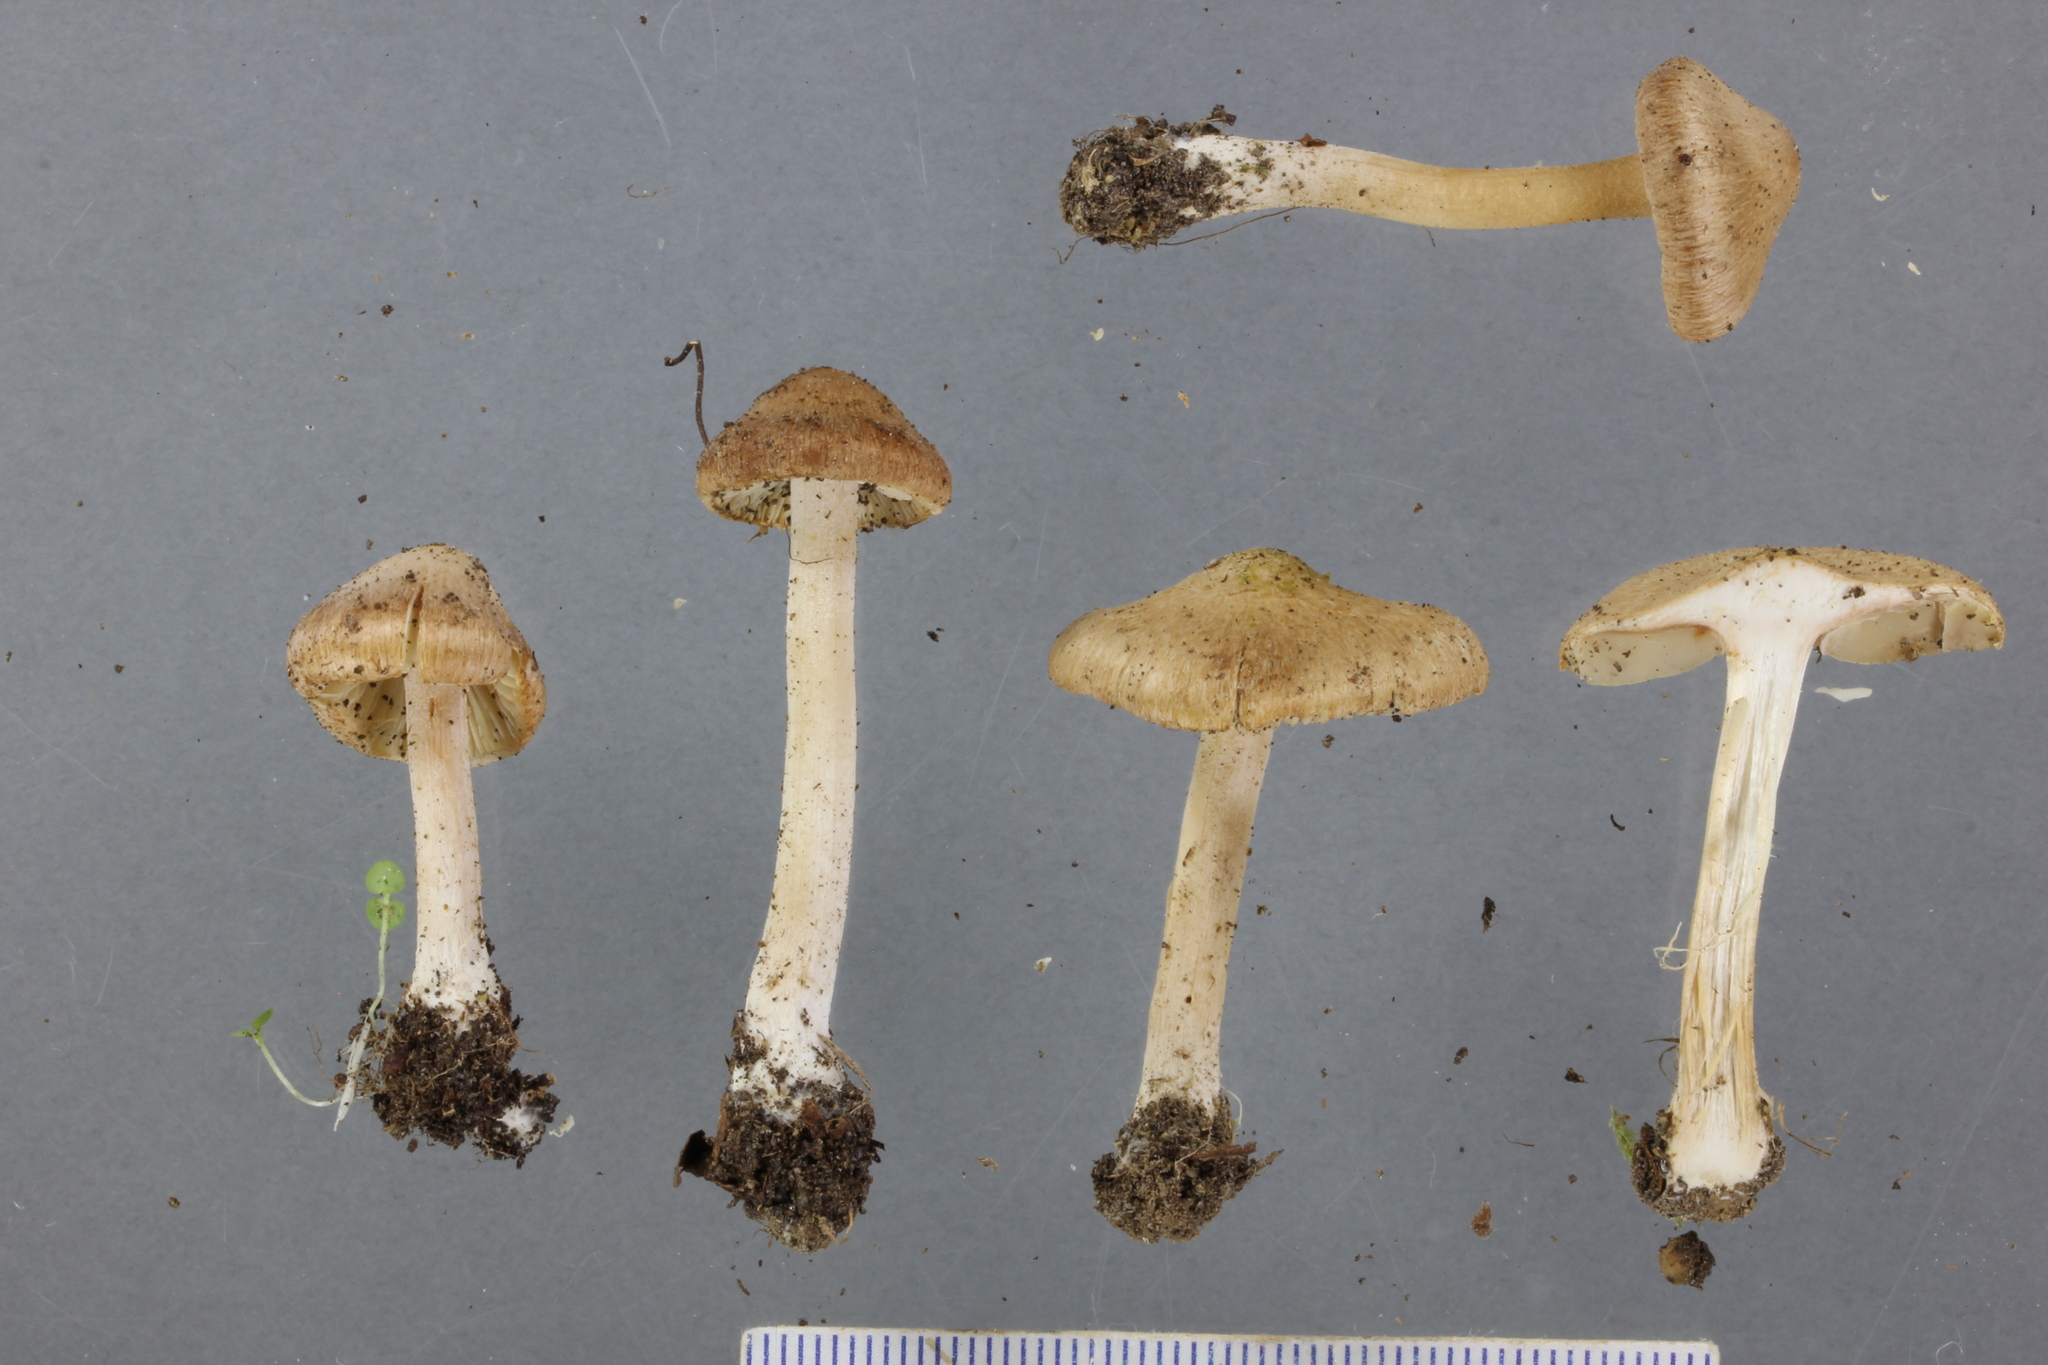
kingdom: Fungi
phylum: Basidiomycota
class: Agaricomycetes
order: Agaricales
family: Inocybaceae
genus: Inocybe
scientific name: Inocybe sindonia
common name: Beige fibrecap
